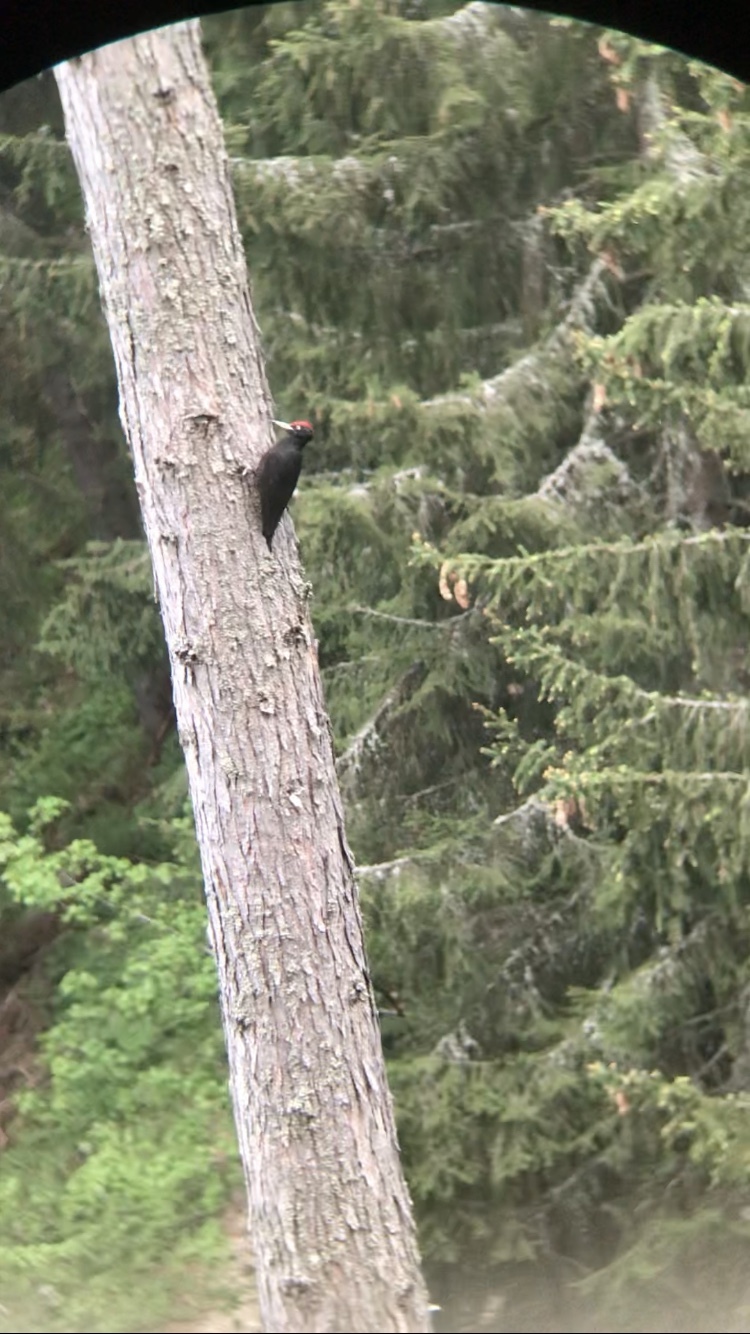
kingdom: Animalia
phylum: Chordata
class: Aves
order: Piciformes
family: Picidae
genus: Dryocopus
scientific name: Dryocopus martius
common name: Black woodpecker
